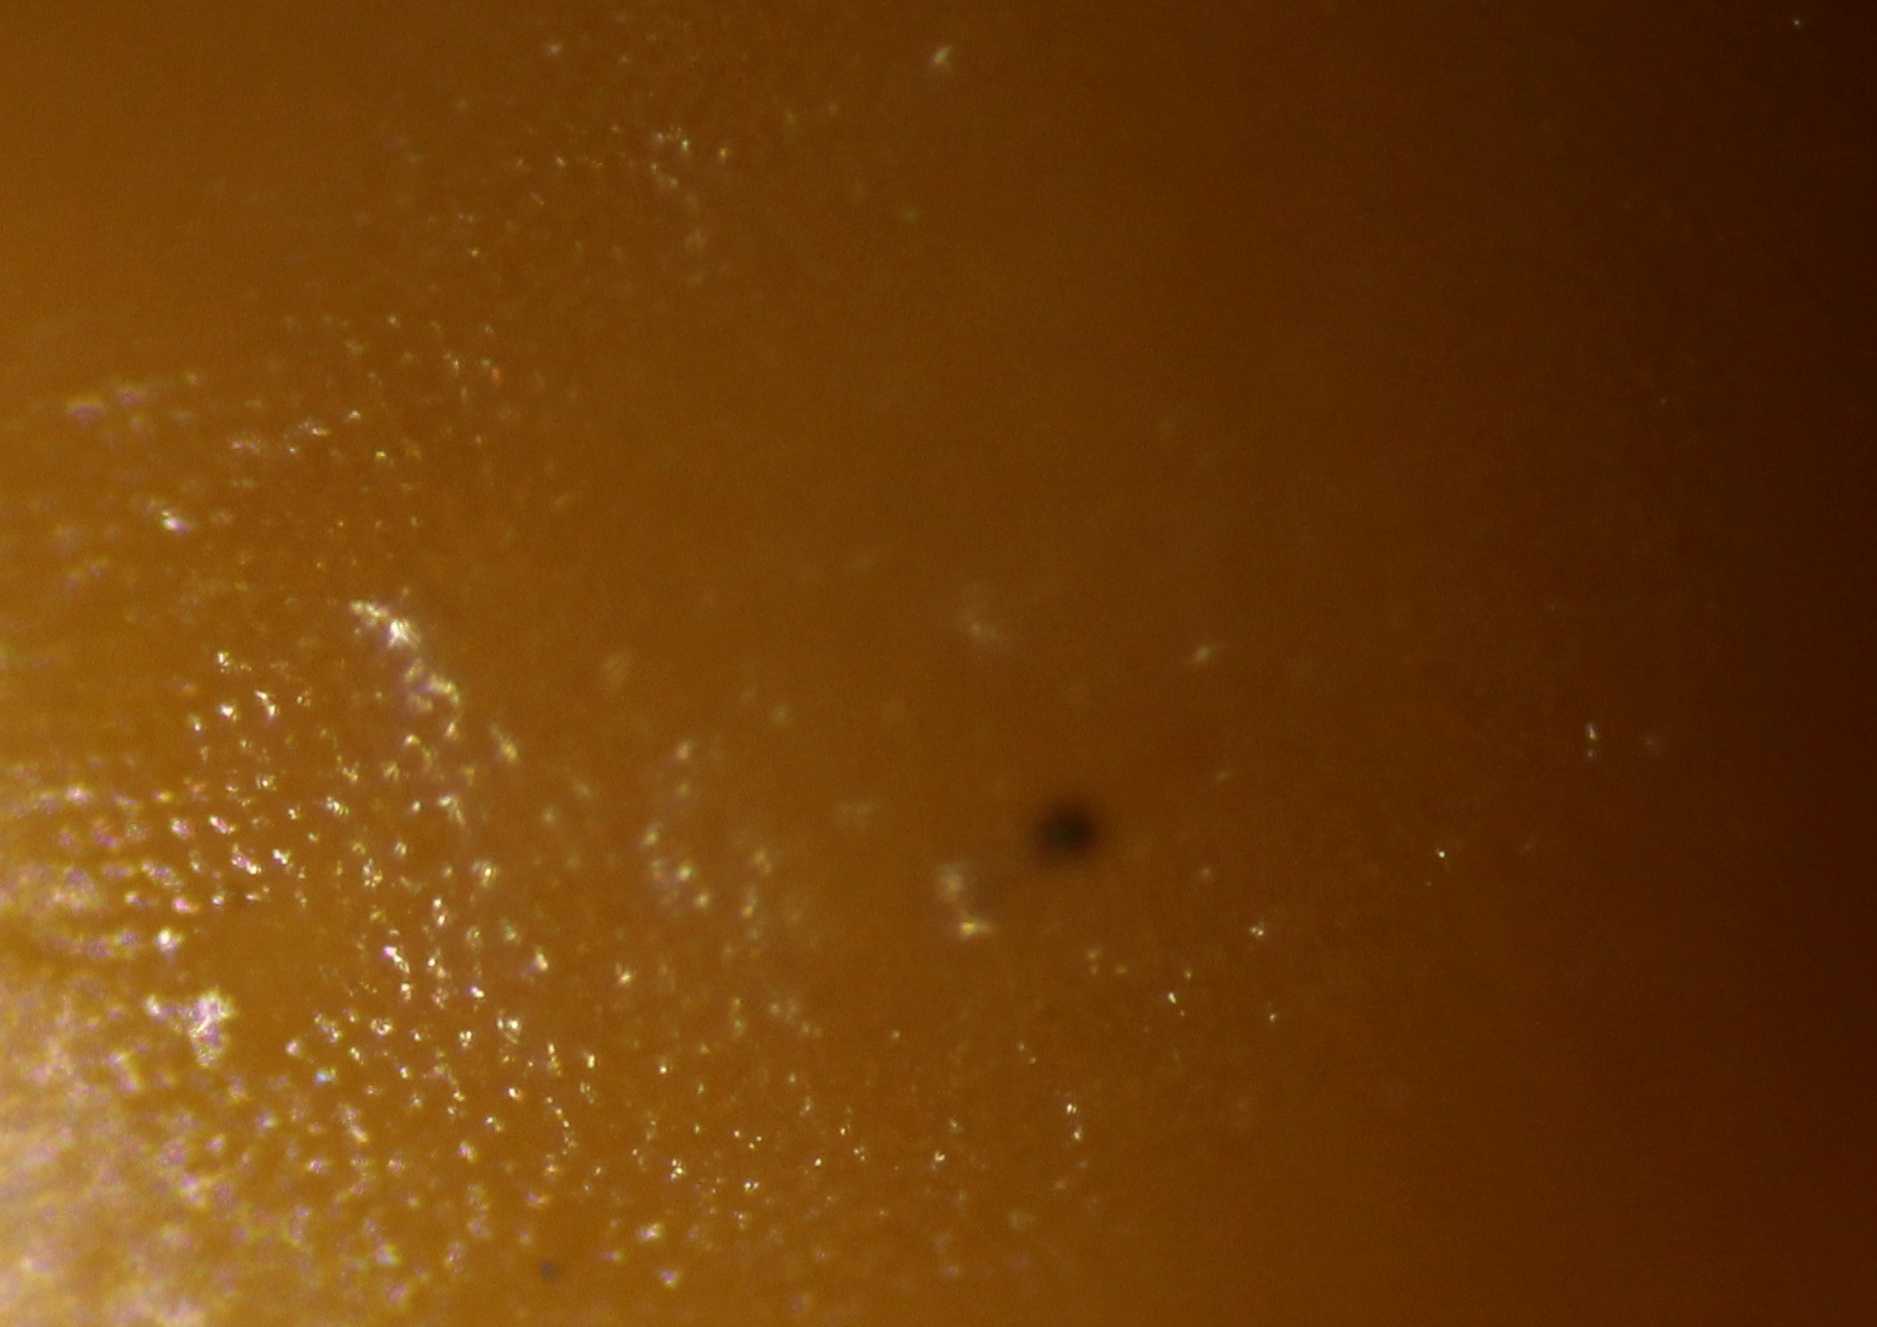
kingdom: Protozoa
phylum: Mycetozoa
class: Myxomycetes
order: Trichiales
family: Trichiaceae
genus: Trichia
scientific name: Trichia varia
